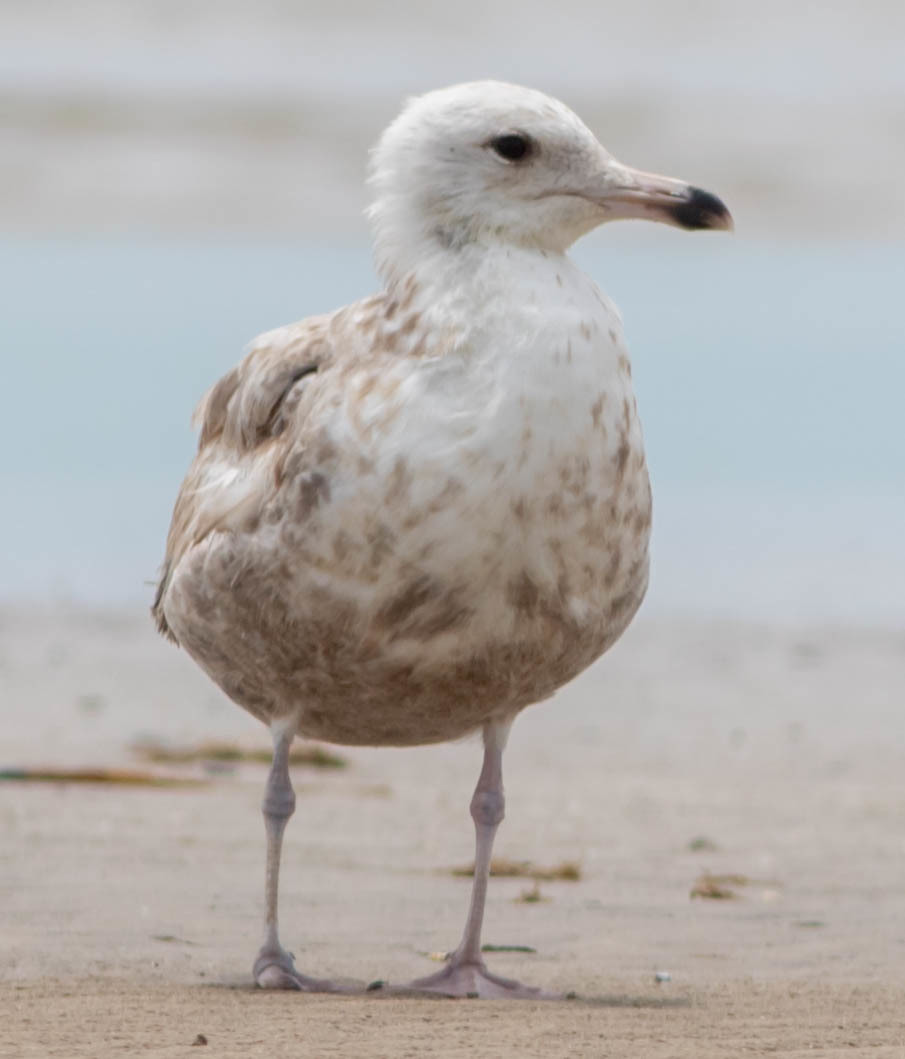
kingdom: Animalia
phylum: Chordata
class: Aves
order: Charadriiformes
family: Laridae
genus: Larus
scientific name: Larus argentatus
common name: Herring gull
